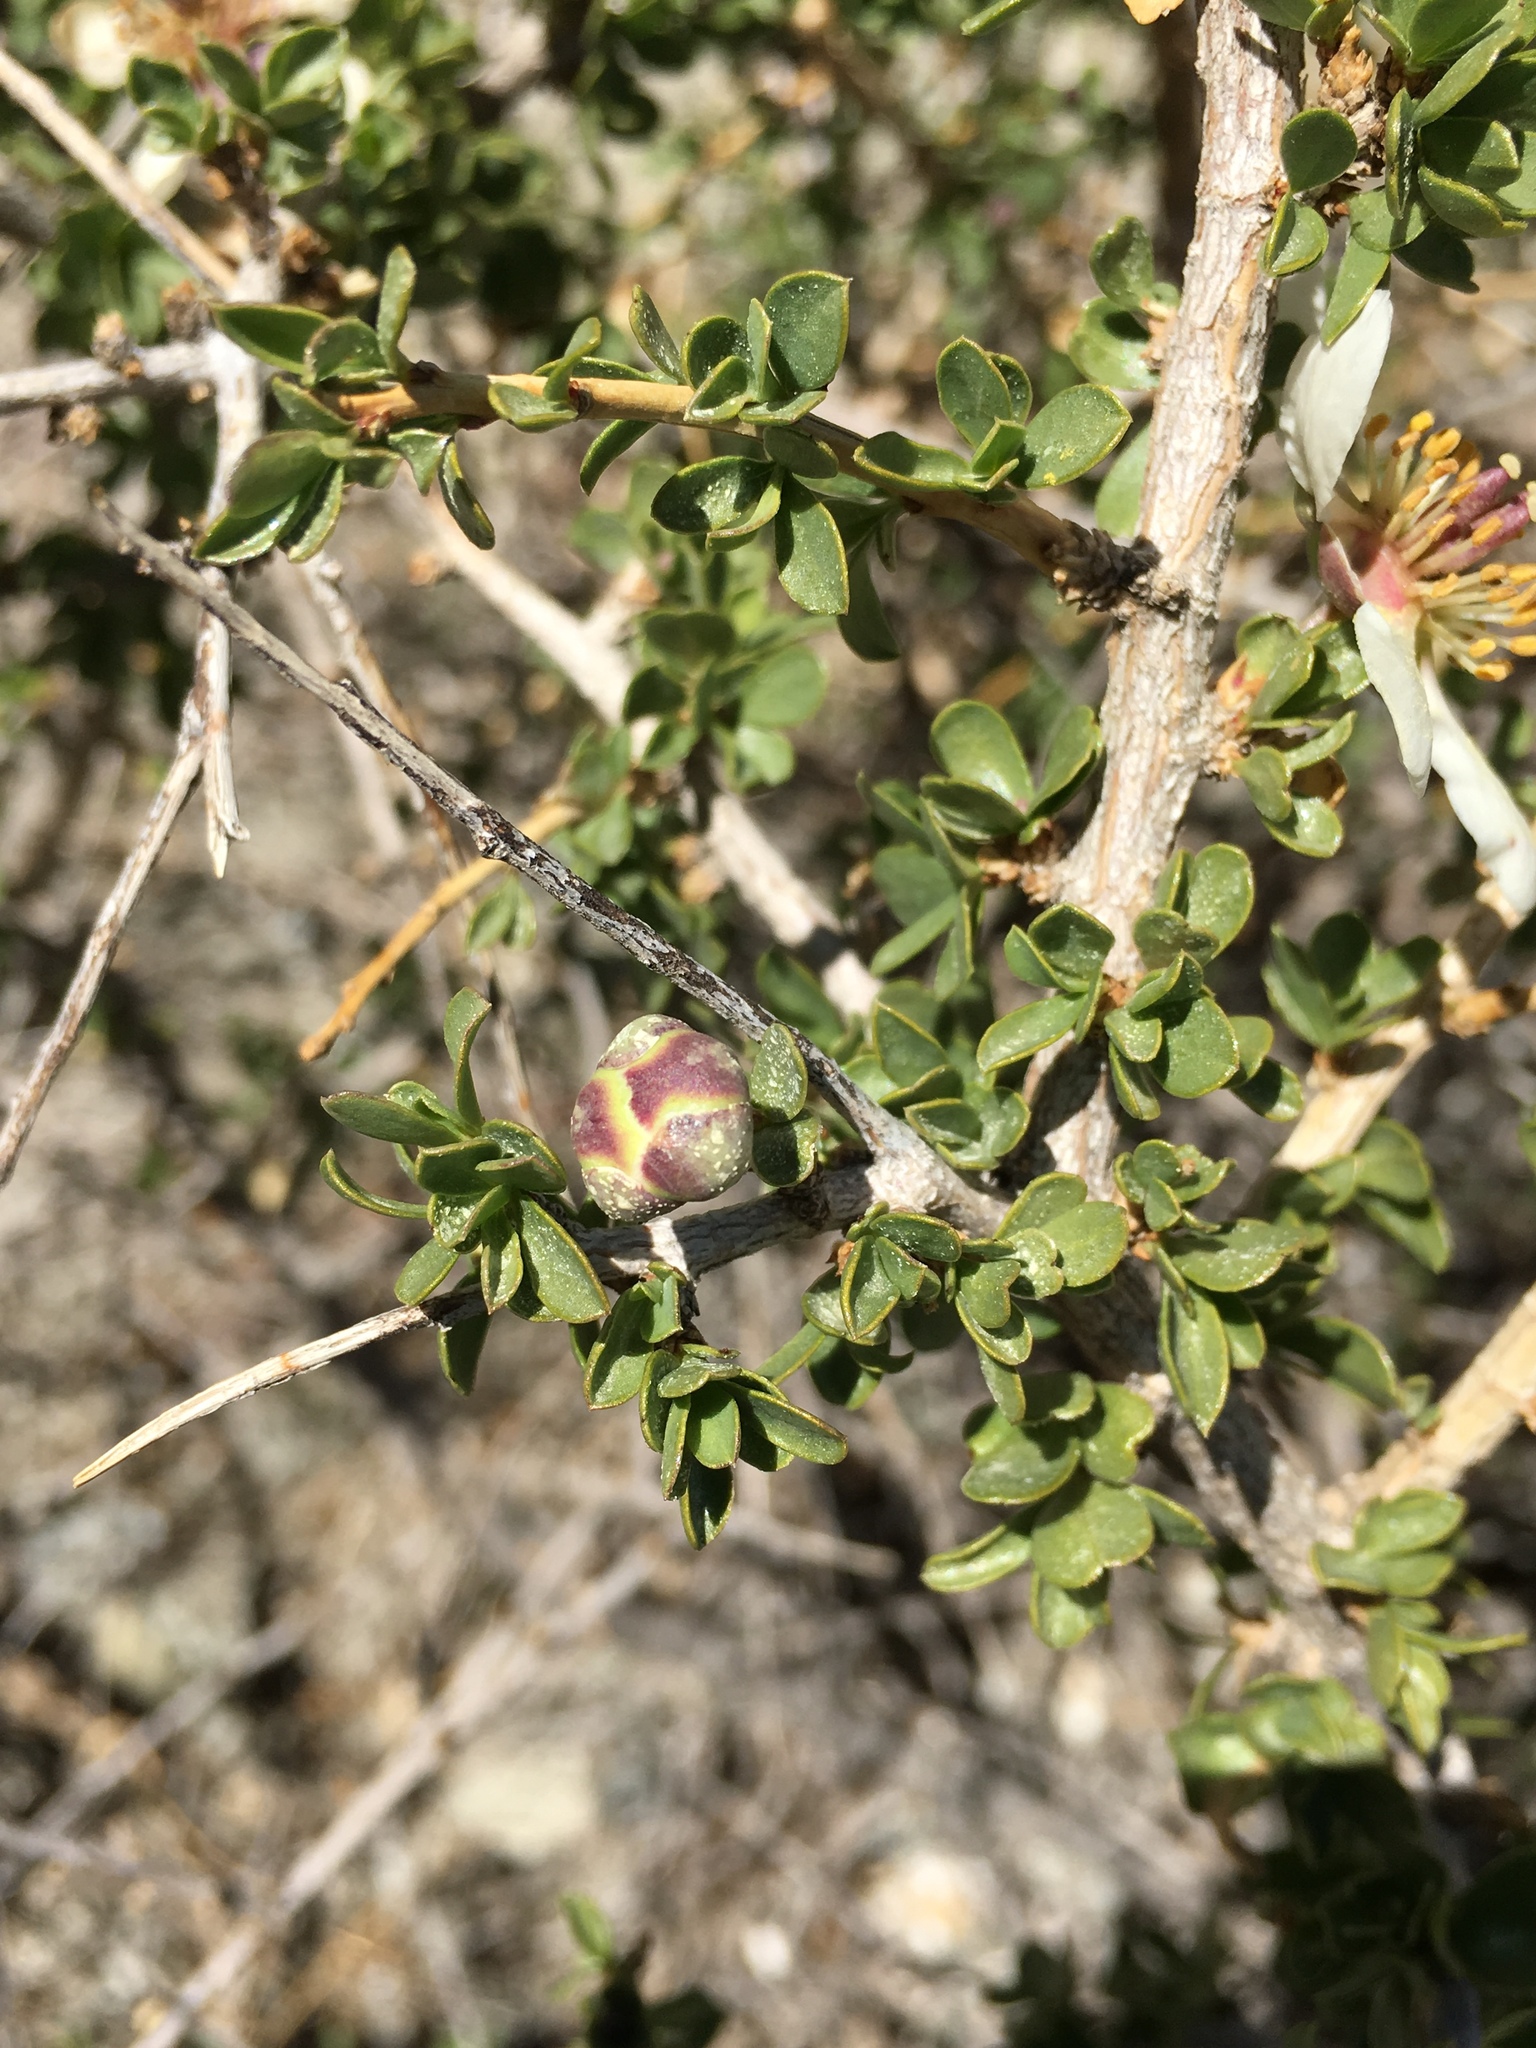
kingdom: Plantae
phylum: Tracheophyta
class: Magnoliopsida
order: Crossosomatales
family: Crossosomataceae
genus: Crossosoma
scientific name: Crossosoma bigelovii
